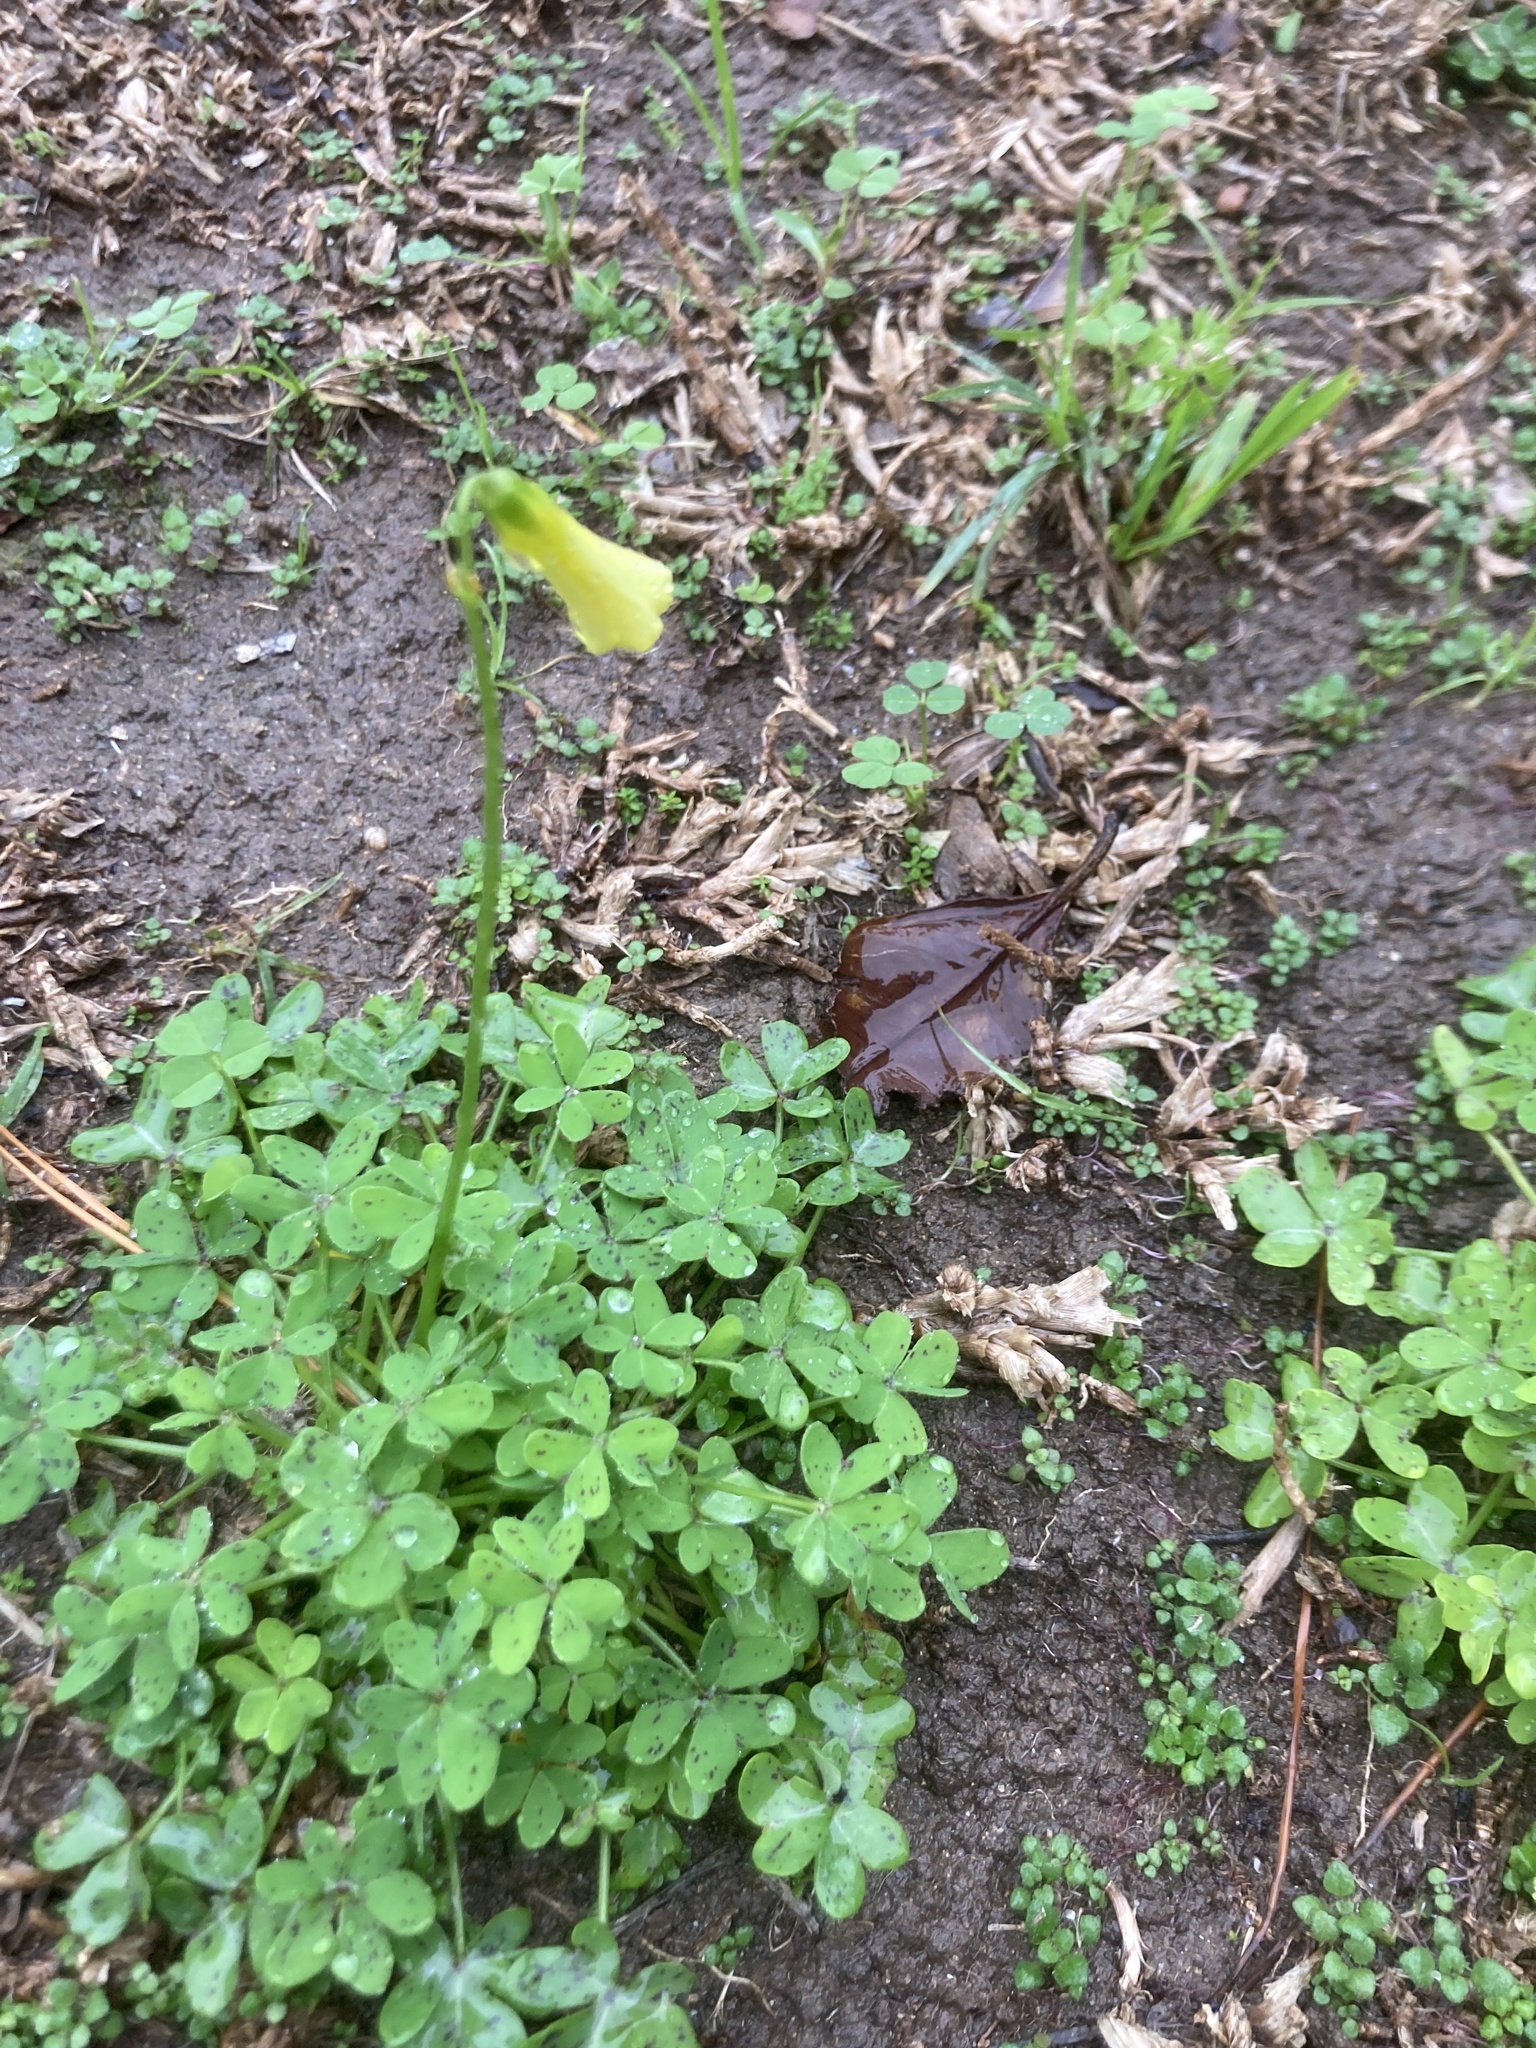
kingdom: Plantae
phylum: Tracheophyta
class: Magnoliopsida
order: Oxalidales
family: Oxalidaceae
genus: Oxalis
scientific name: Oxalis pes-caprae
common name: Bermuda-buttercup
